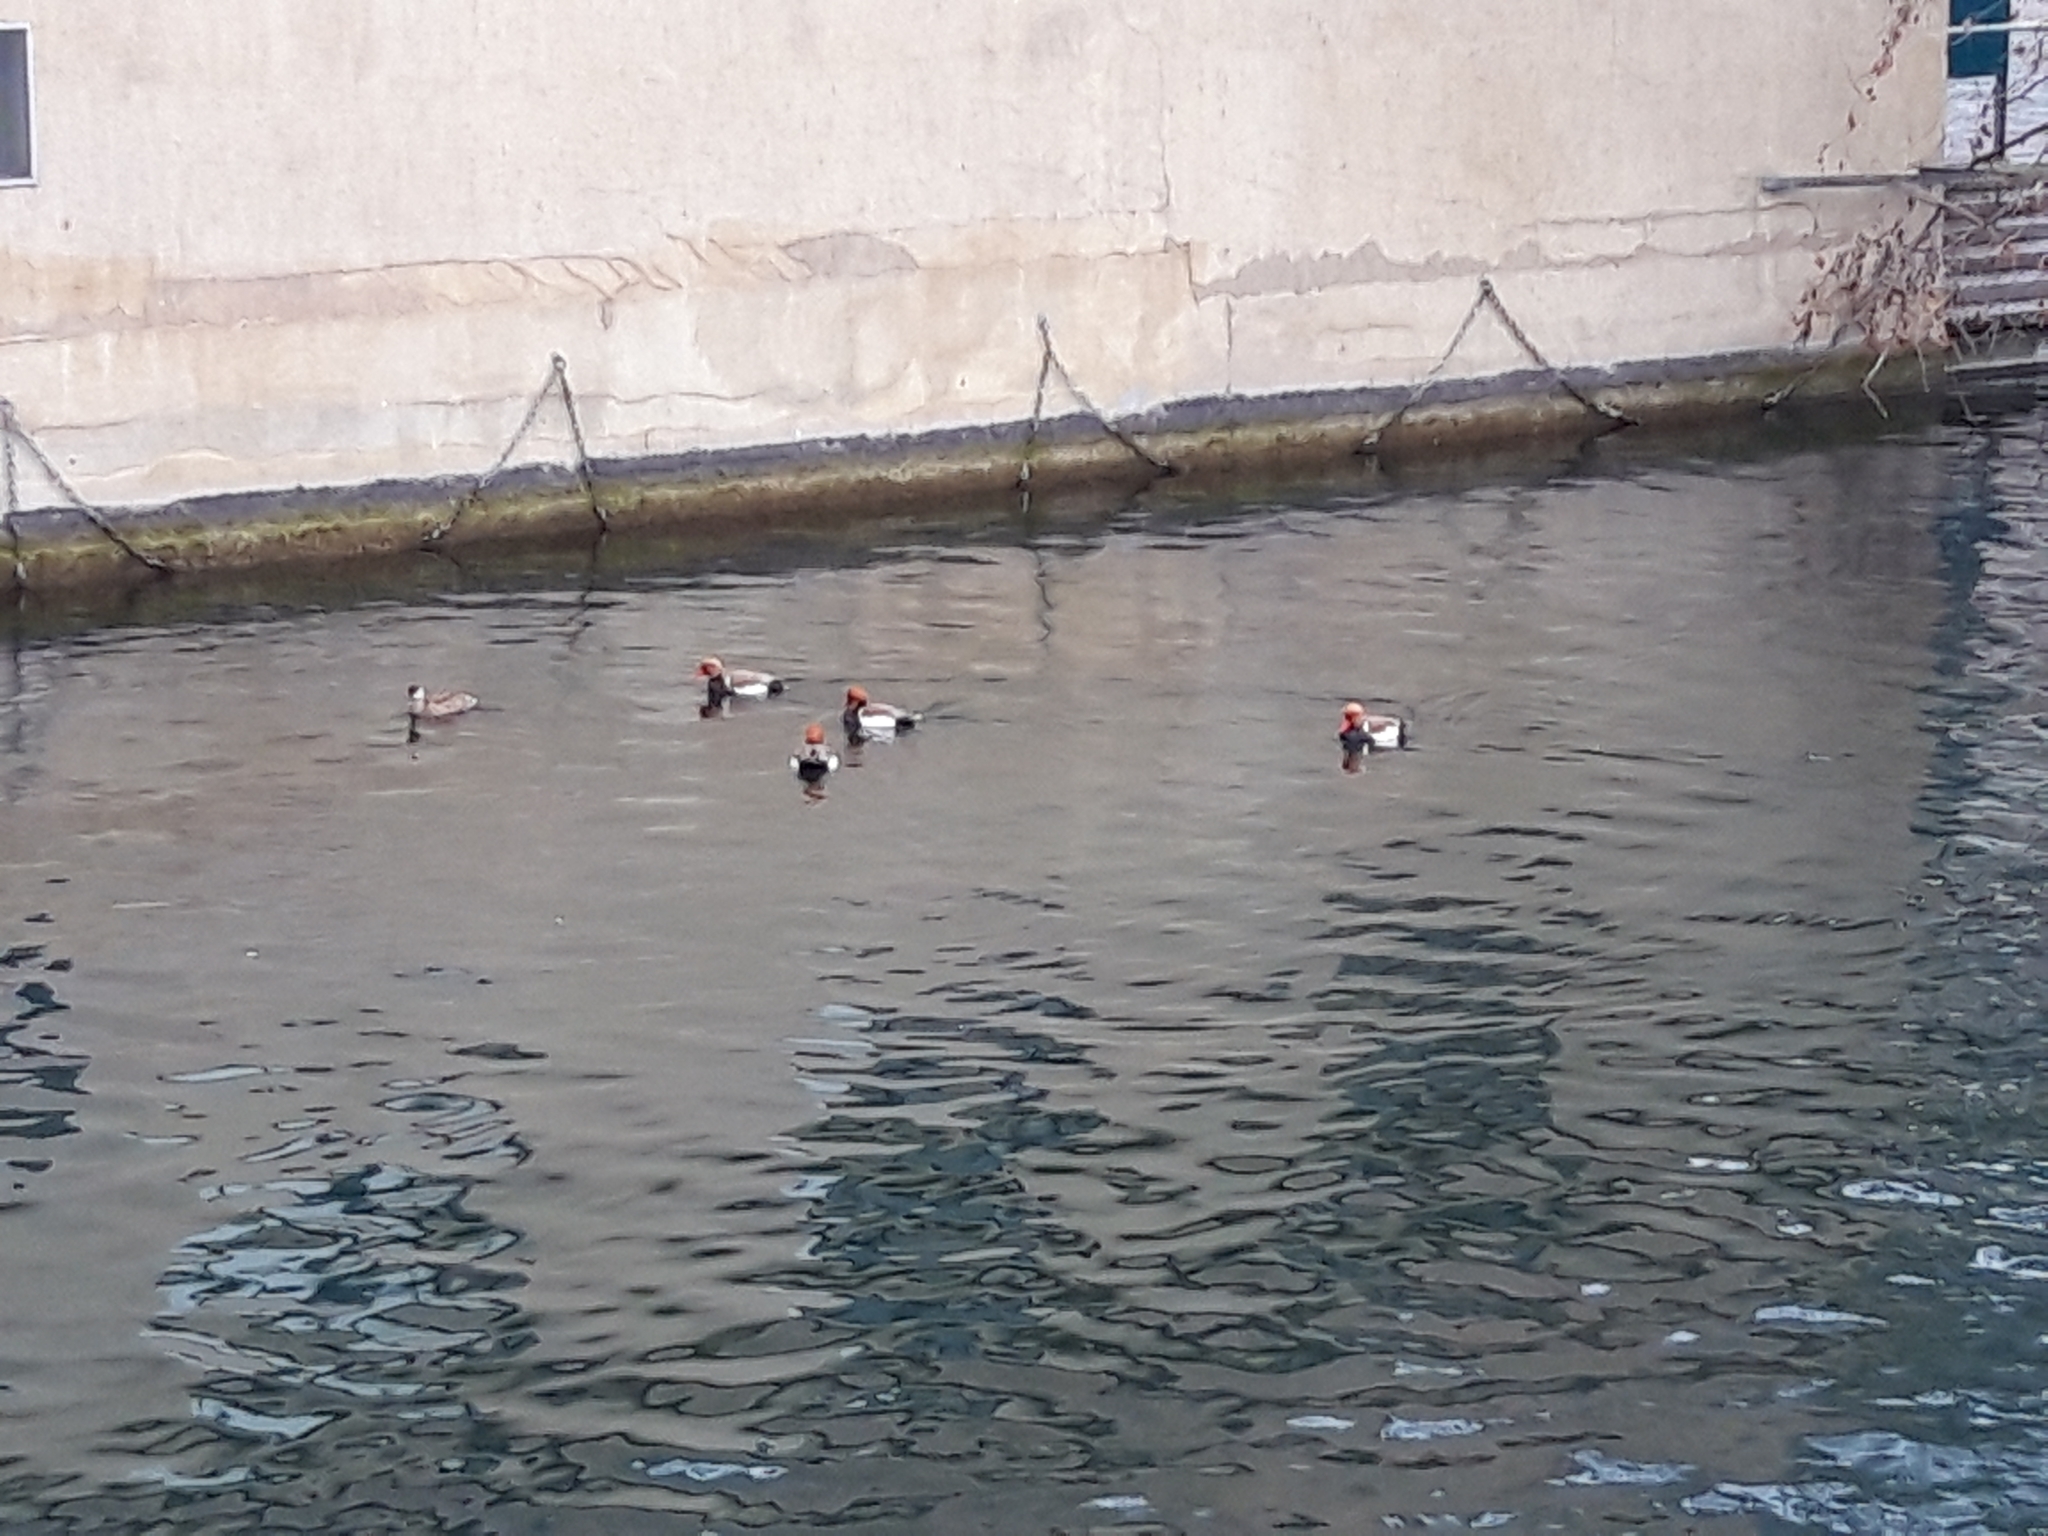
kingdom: Animalia
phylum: Chordata
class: Aves
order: Anseriformes
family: Anatidae
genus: Netta
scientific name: Netta rufina
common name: Red-crested pochard
